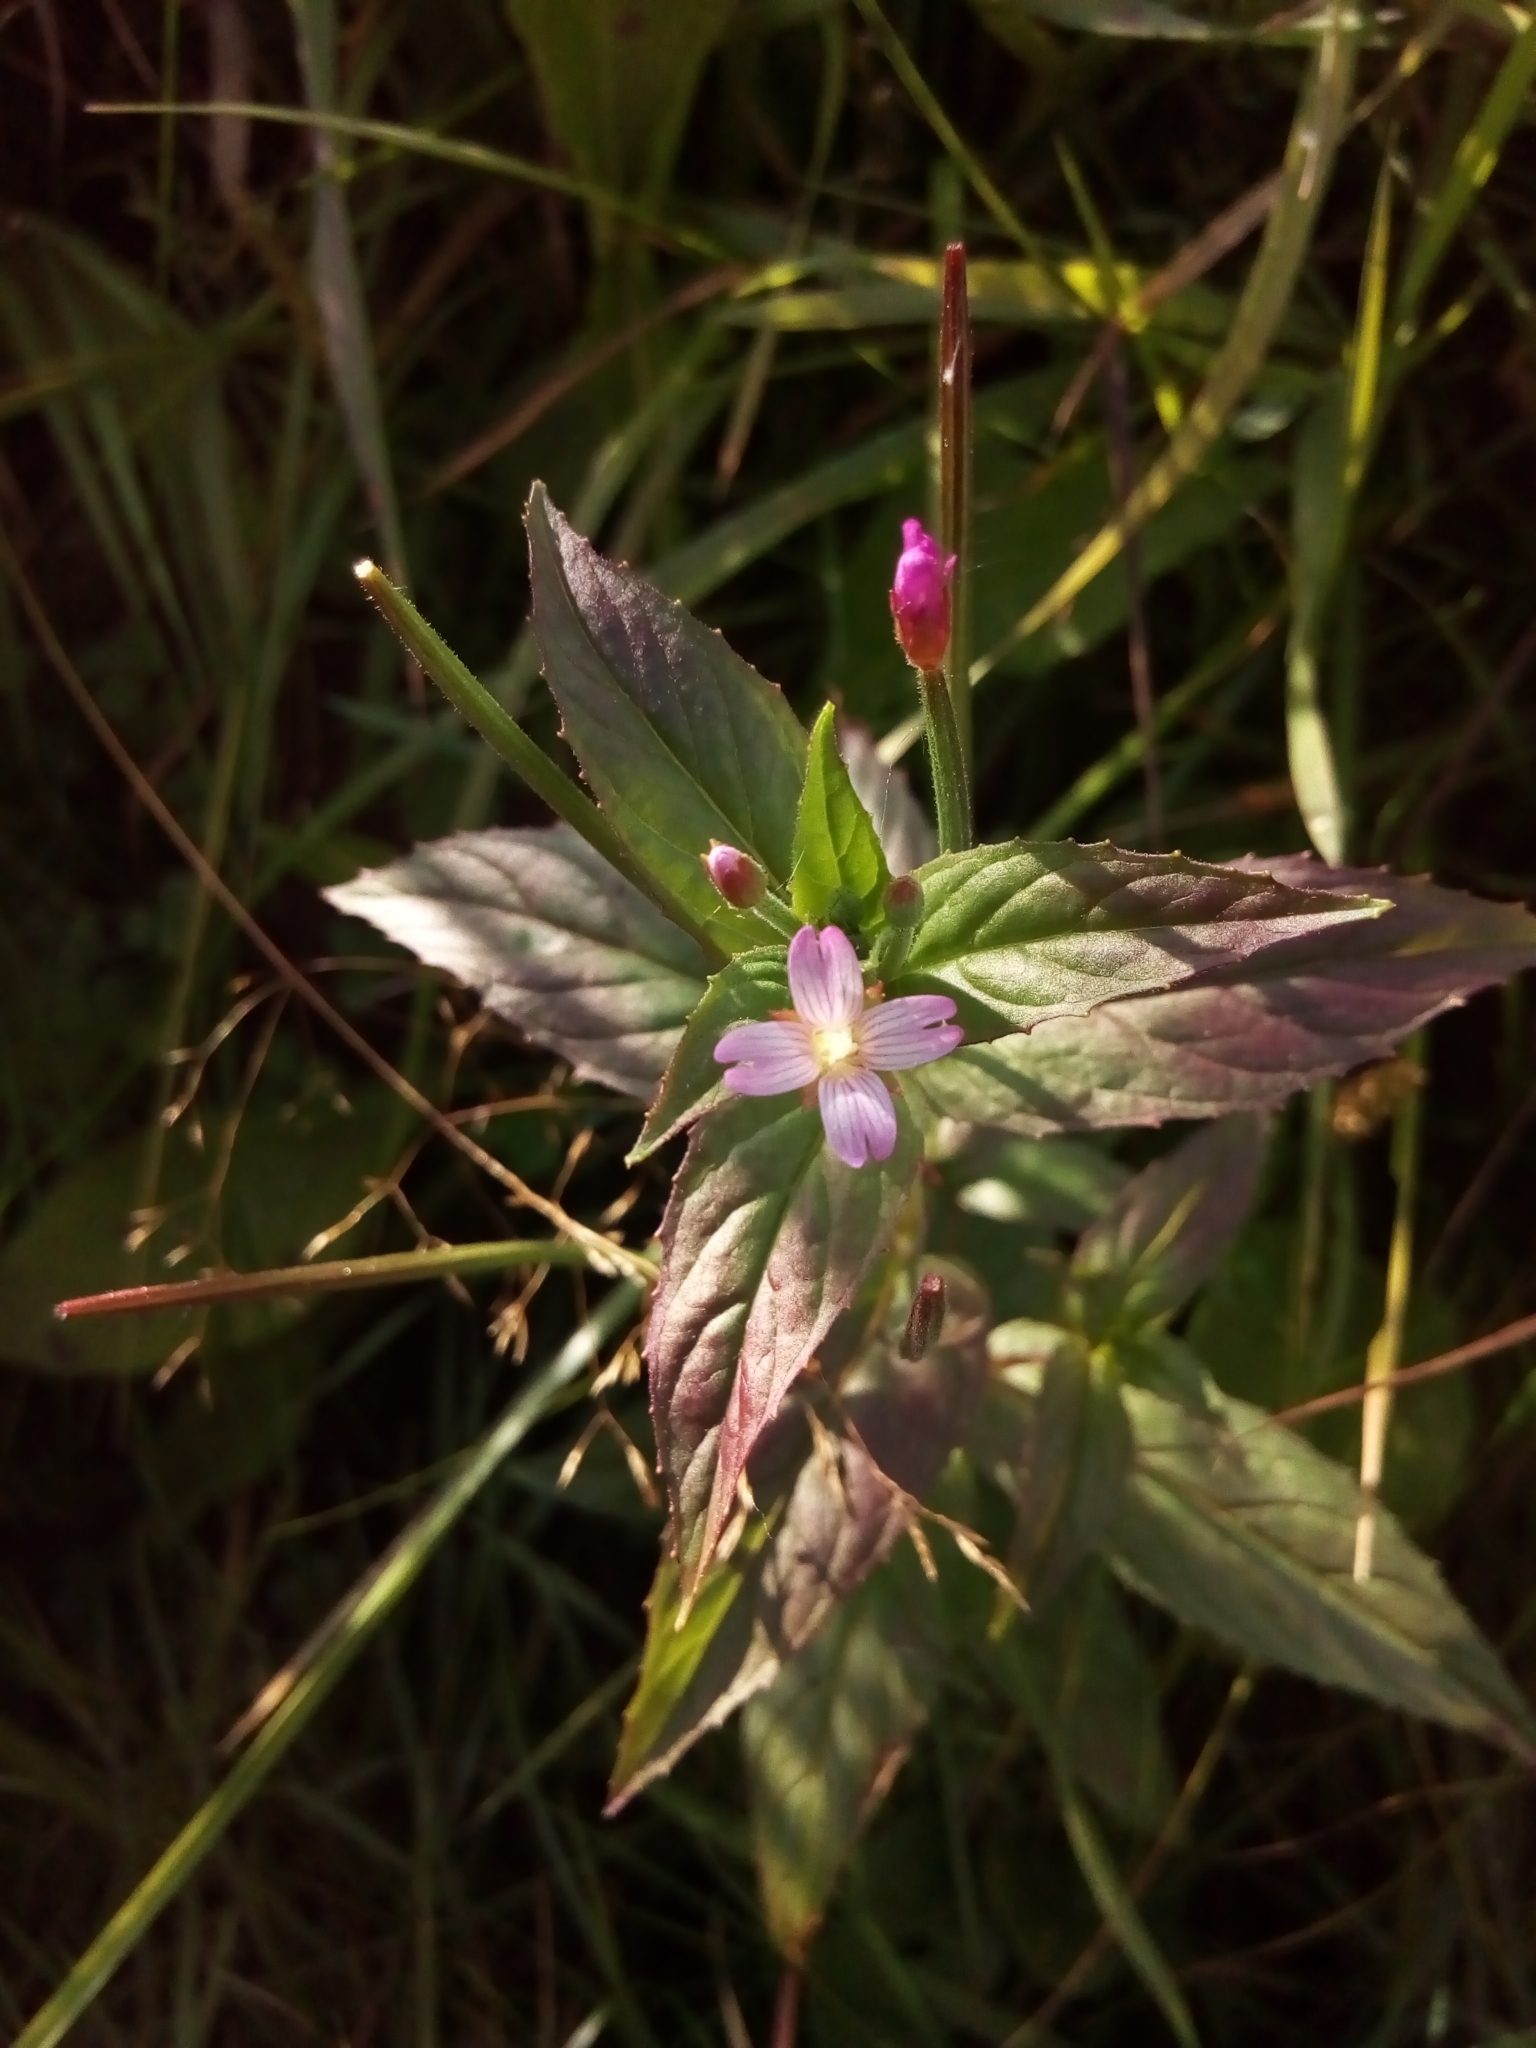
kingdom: Plantae
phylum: Tracheophyta
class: Magnoliopsida
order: Myrtales
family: Onagraceae
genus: Epilobium
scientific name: Epilobium ciliatum
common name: American willowherb
